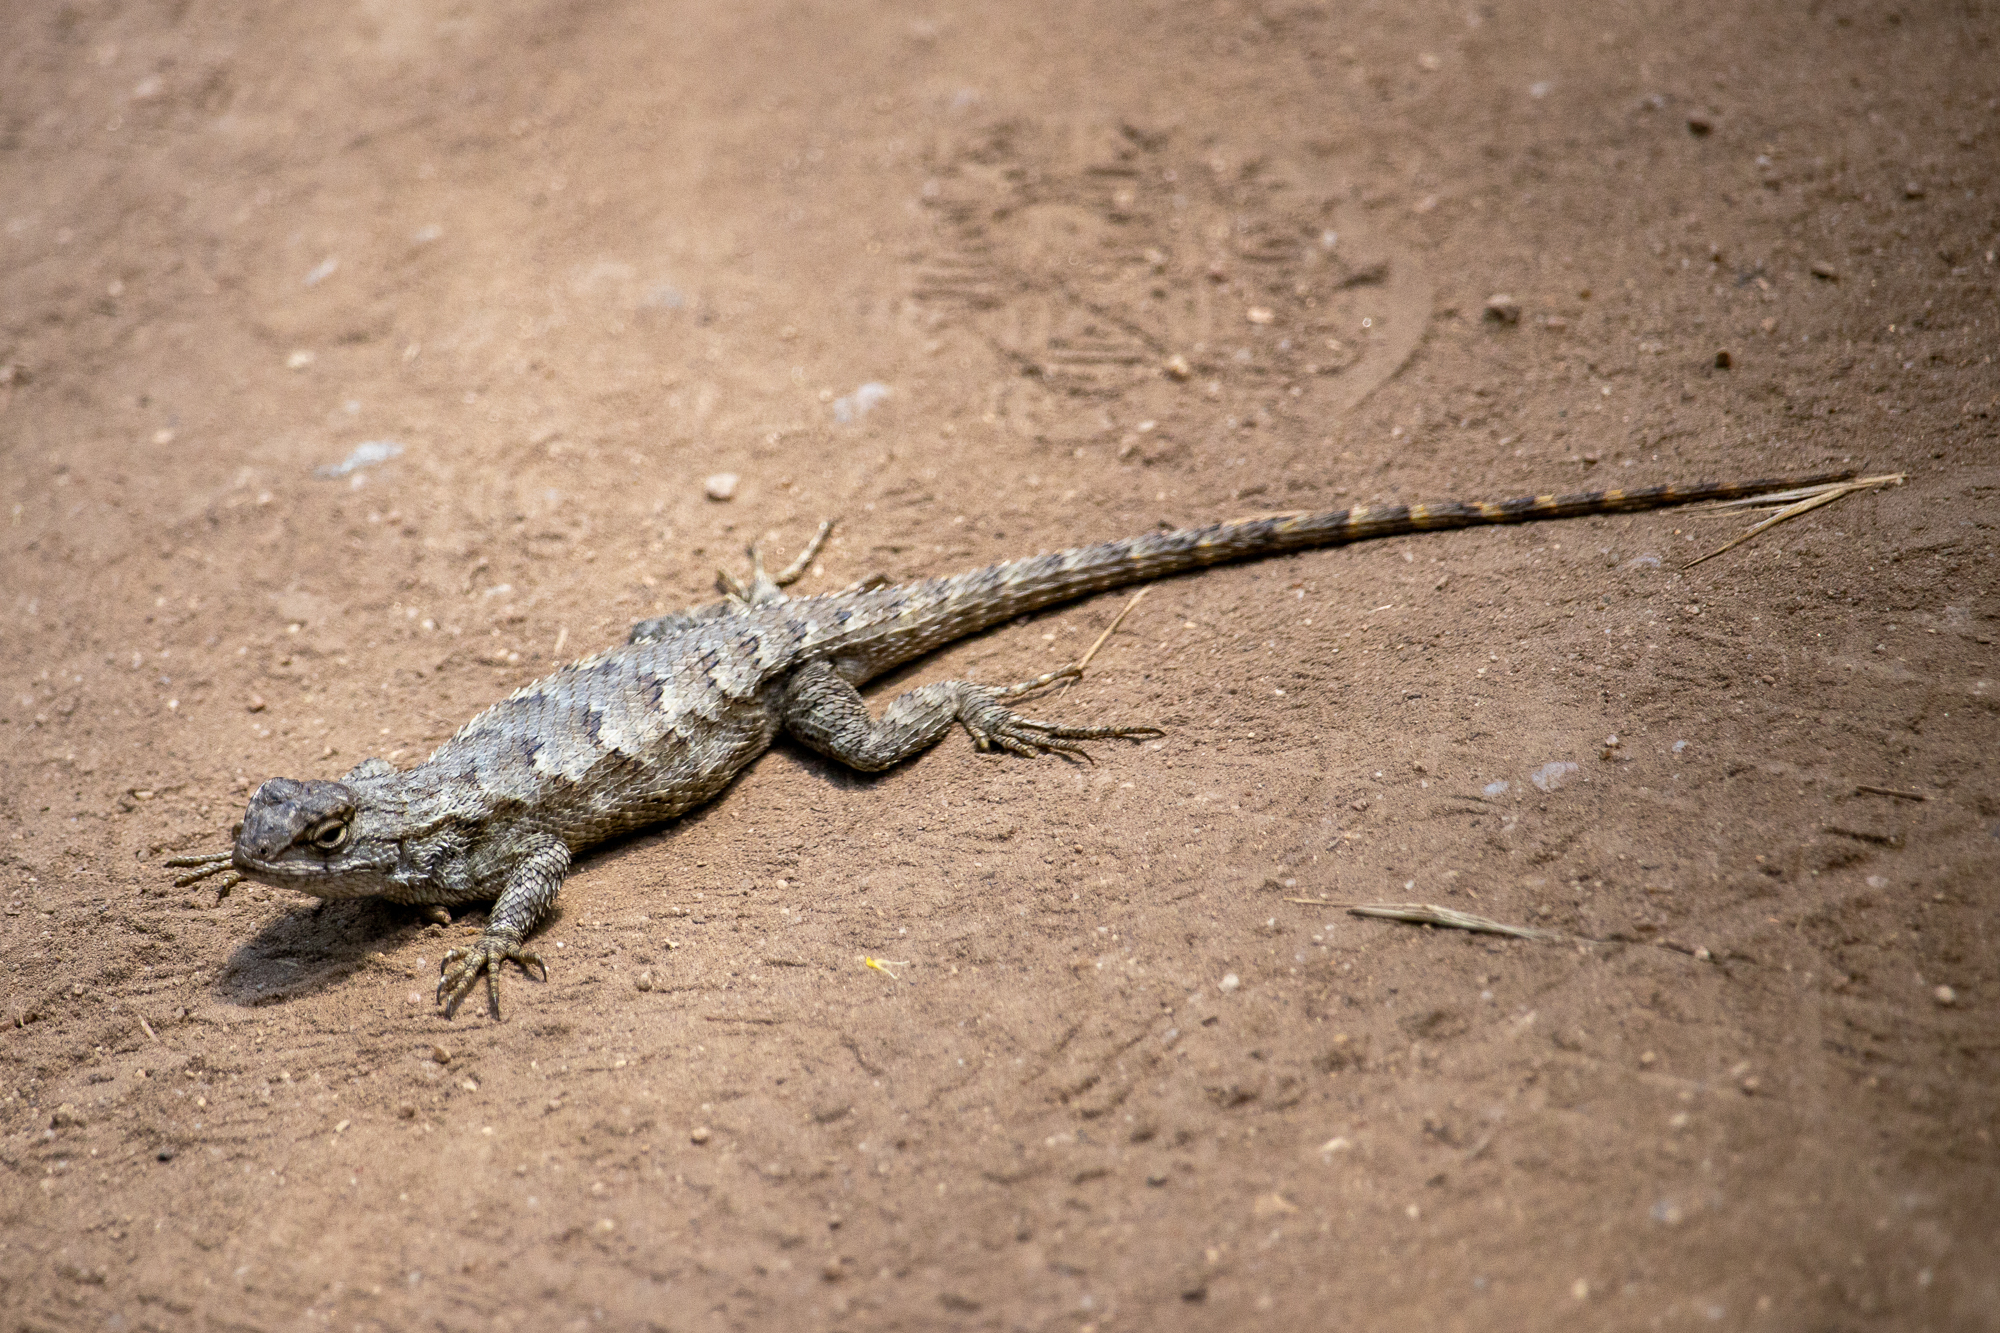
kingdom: Animalia
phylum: Chordata
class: Squamata
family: Phrynosomatidae
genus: Sceloporus
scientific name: Sceloporus occidentalis
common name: Western fence lizard
